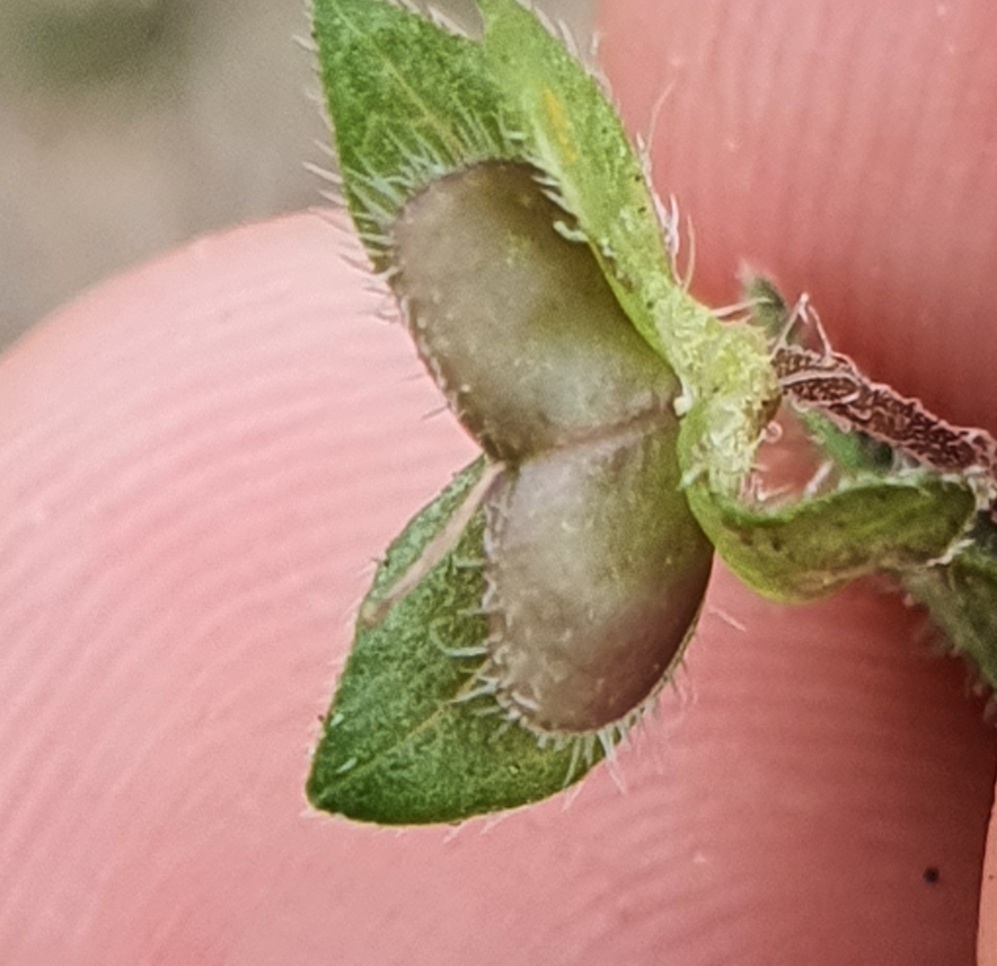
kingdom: Plantae
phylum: Tracheophyta
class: Magnoliopsida
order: Lamiales
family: Plantaginaceae
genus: Veronica
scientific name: Veronica persica
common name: Common field-speedwell
